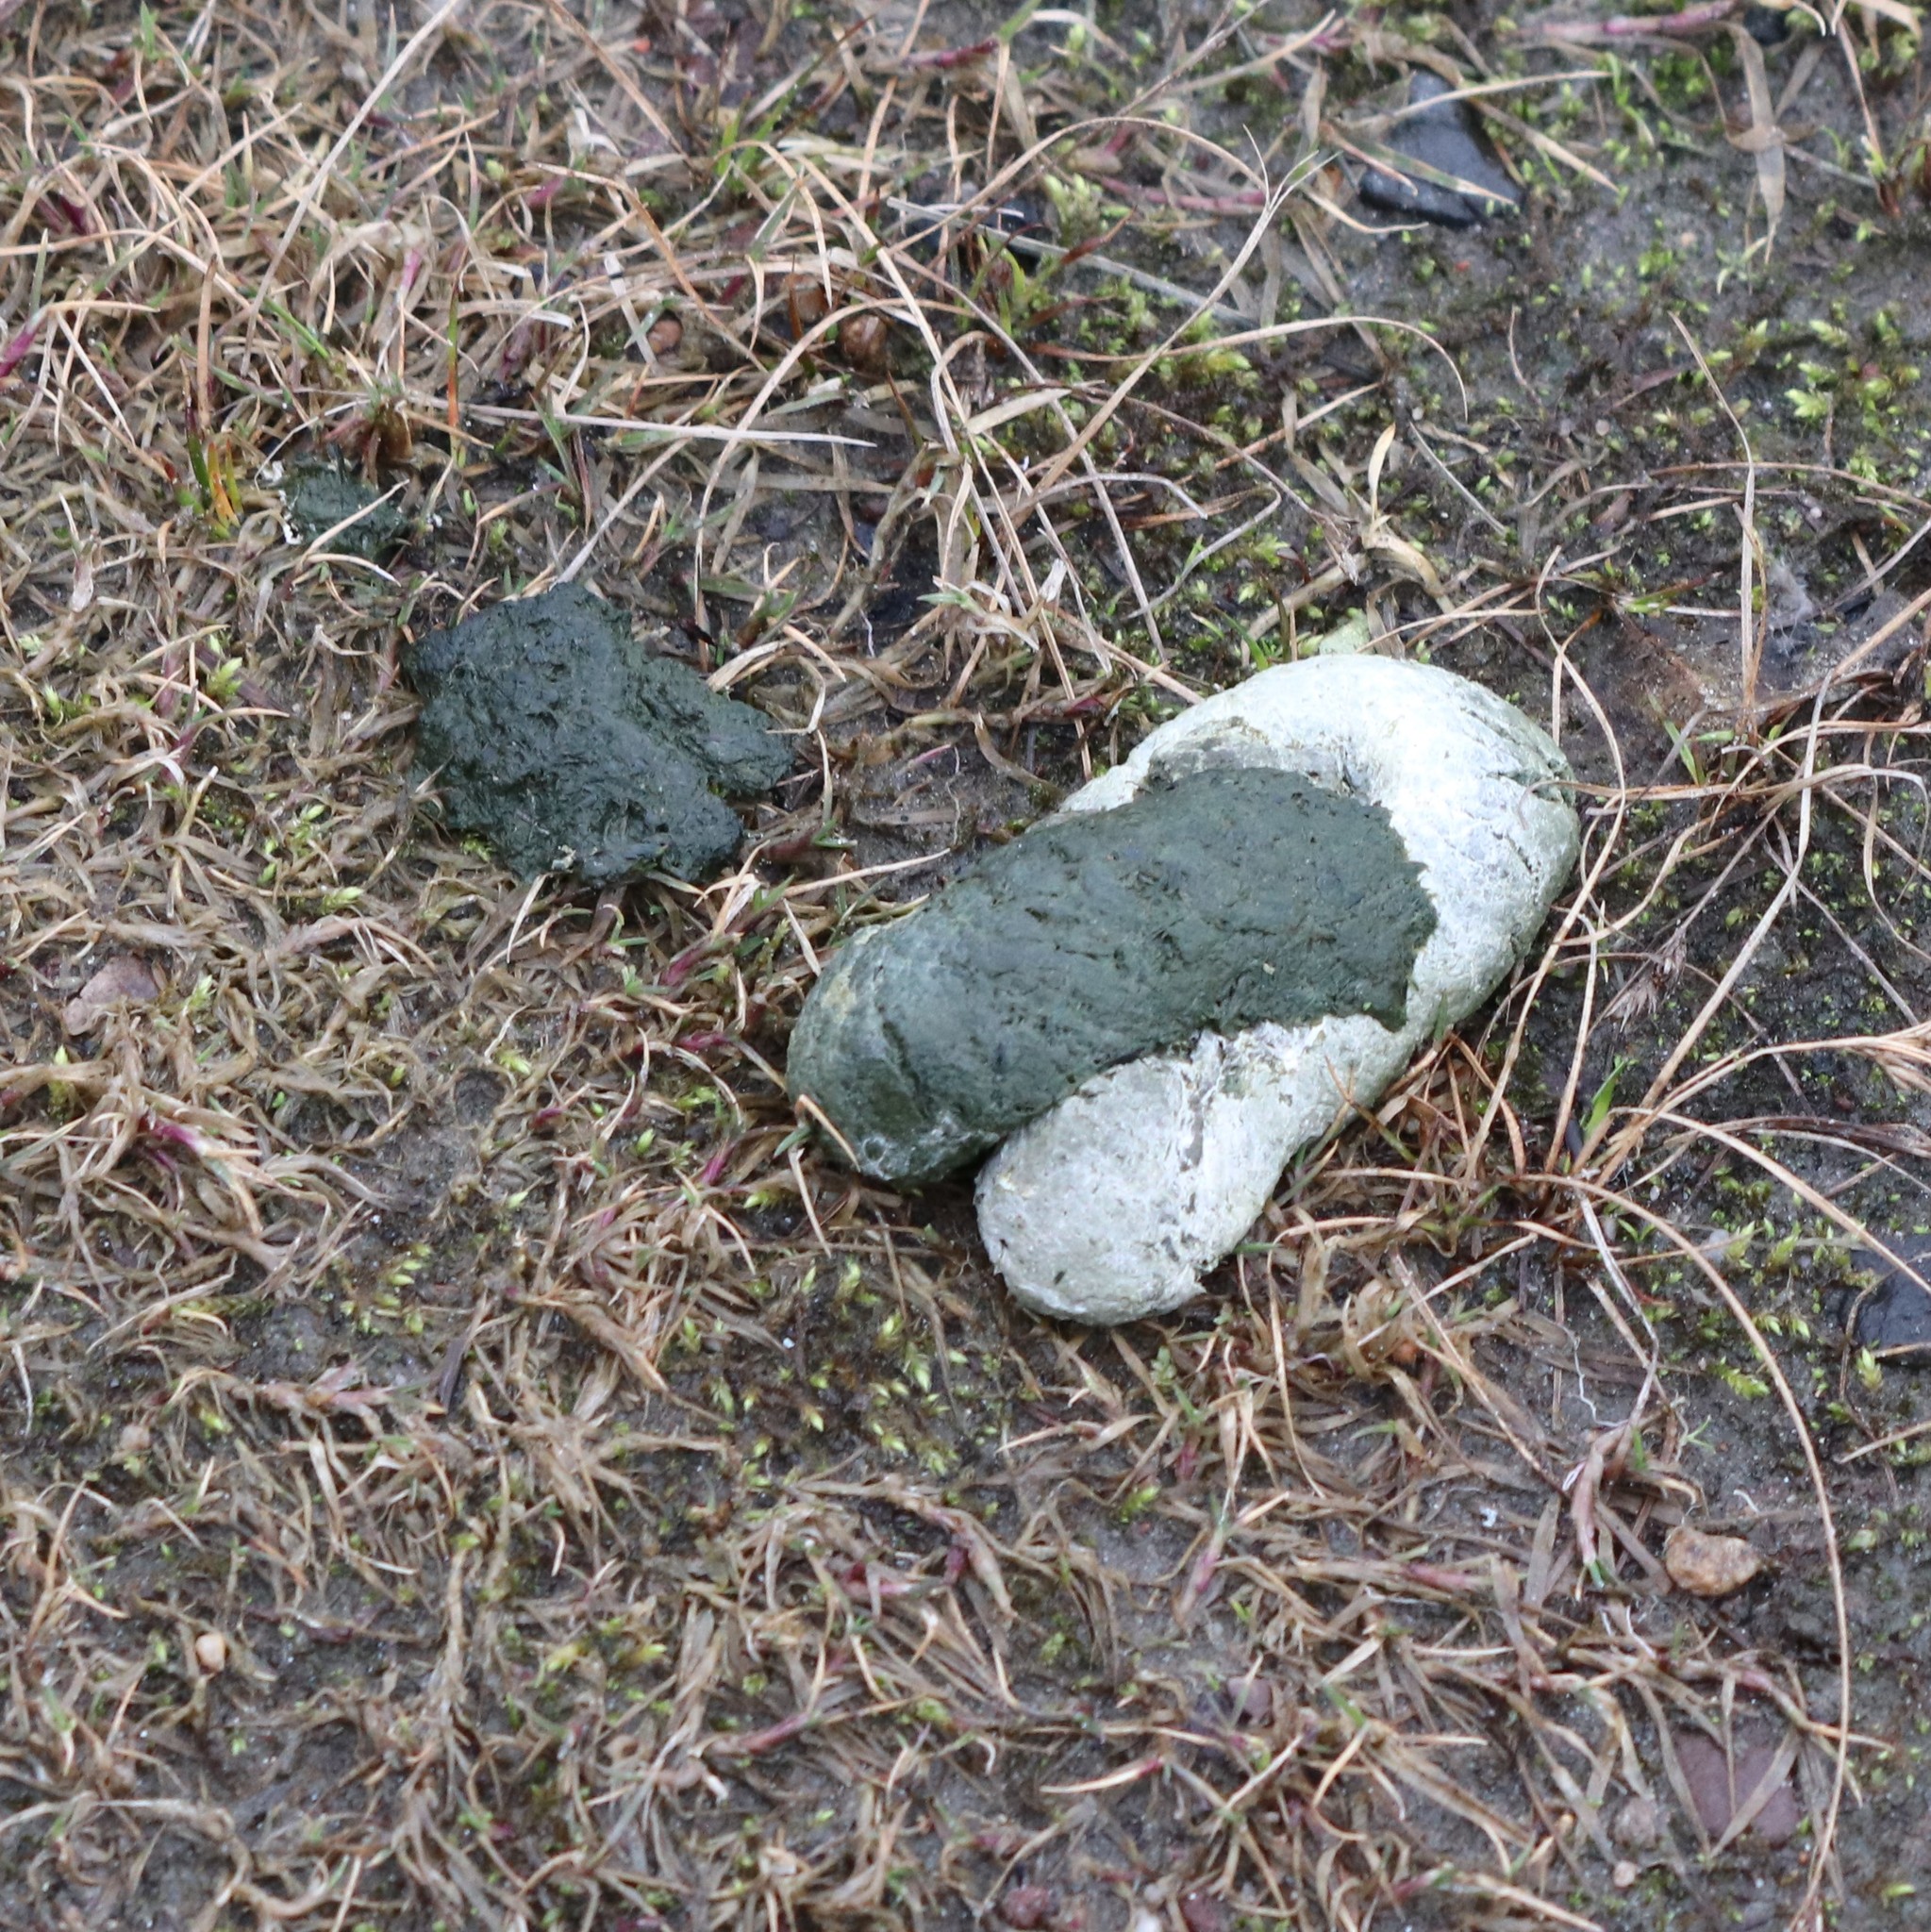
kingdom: Animalia
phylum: Chordata
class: Aves
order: Anseriformes
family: Anatidae
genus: Branta
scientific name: Branta canadensis
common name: Canada goose
